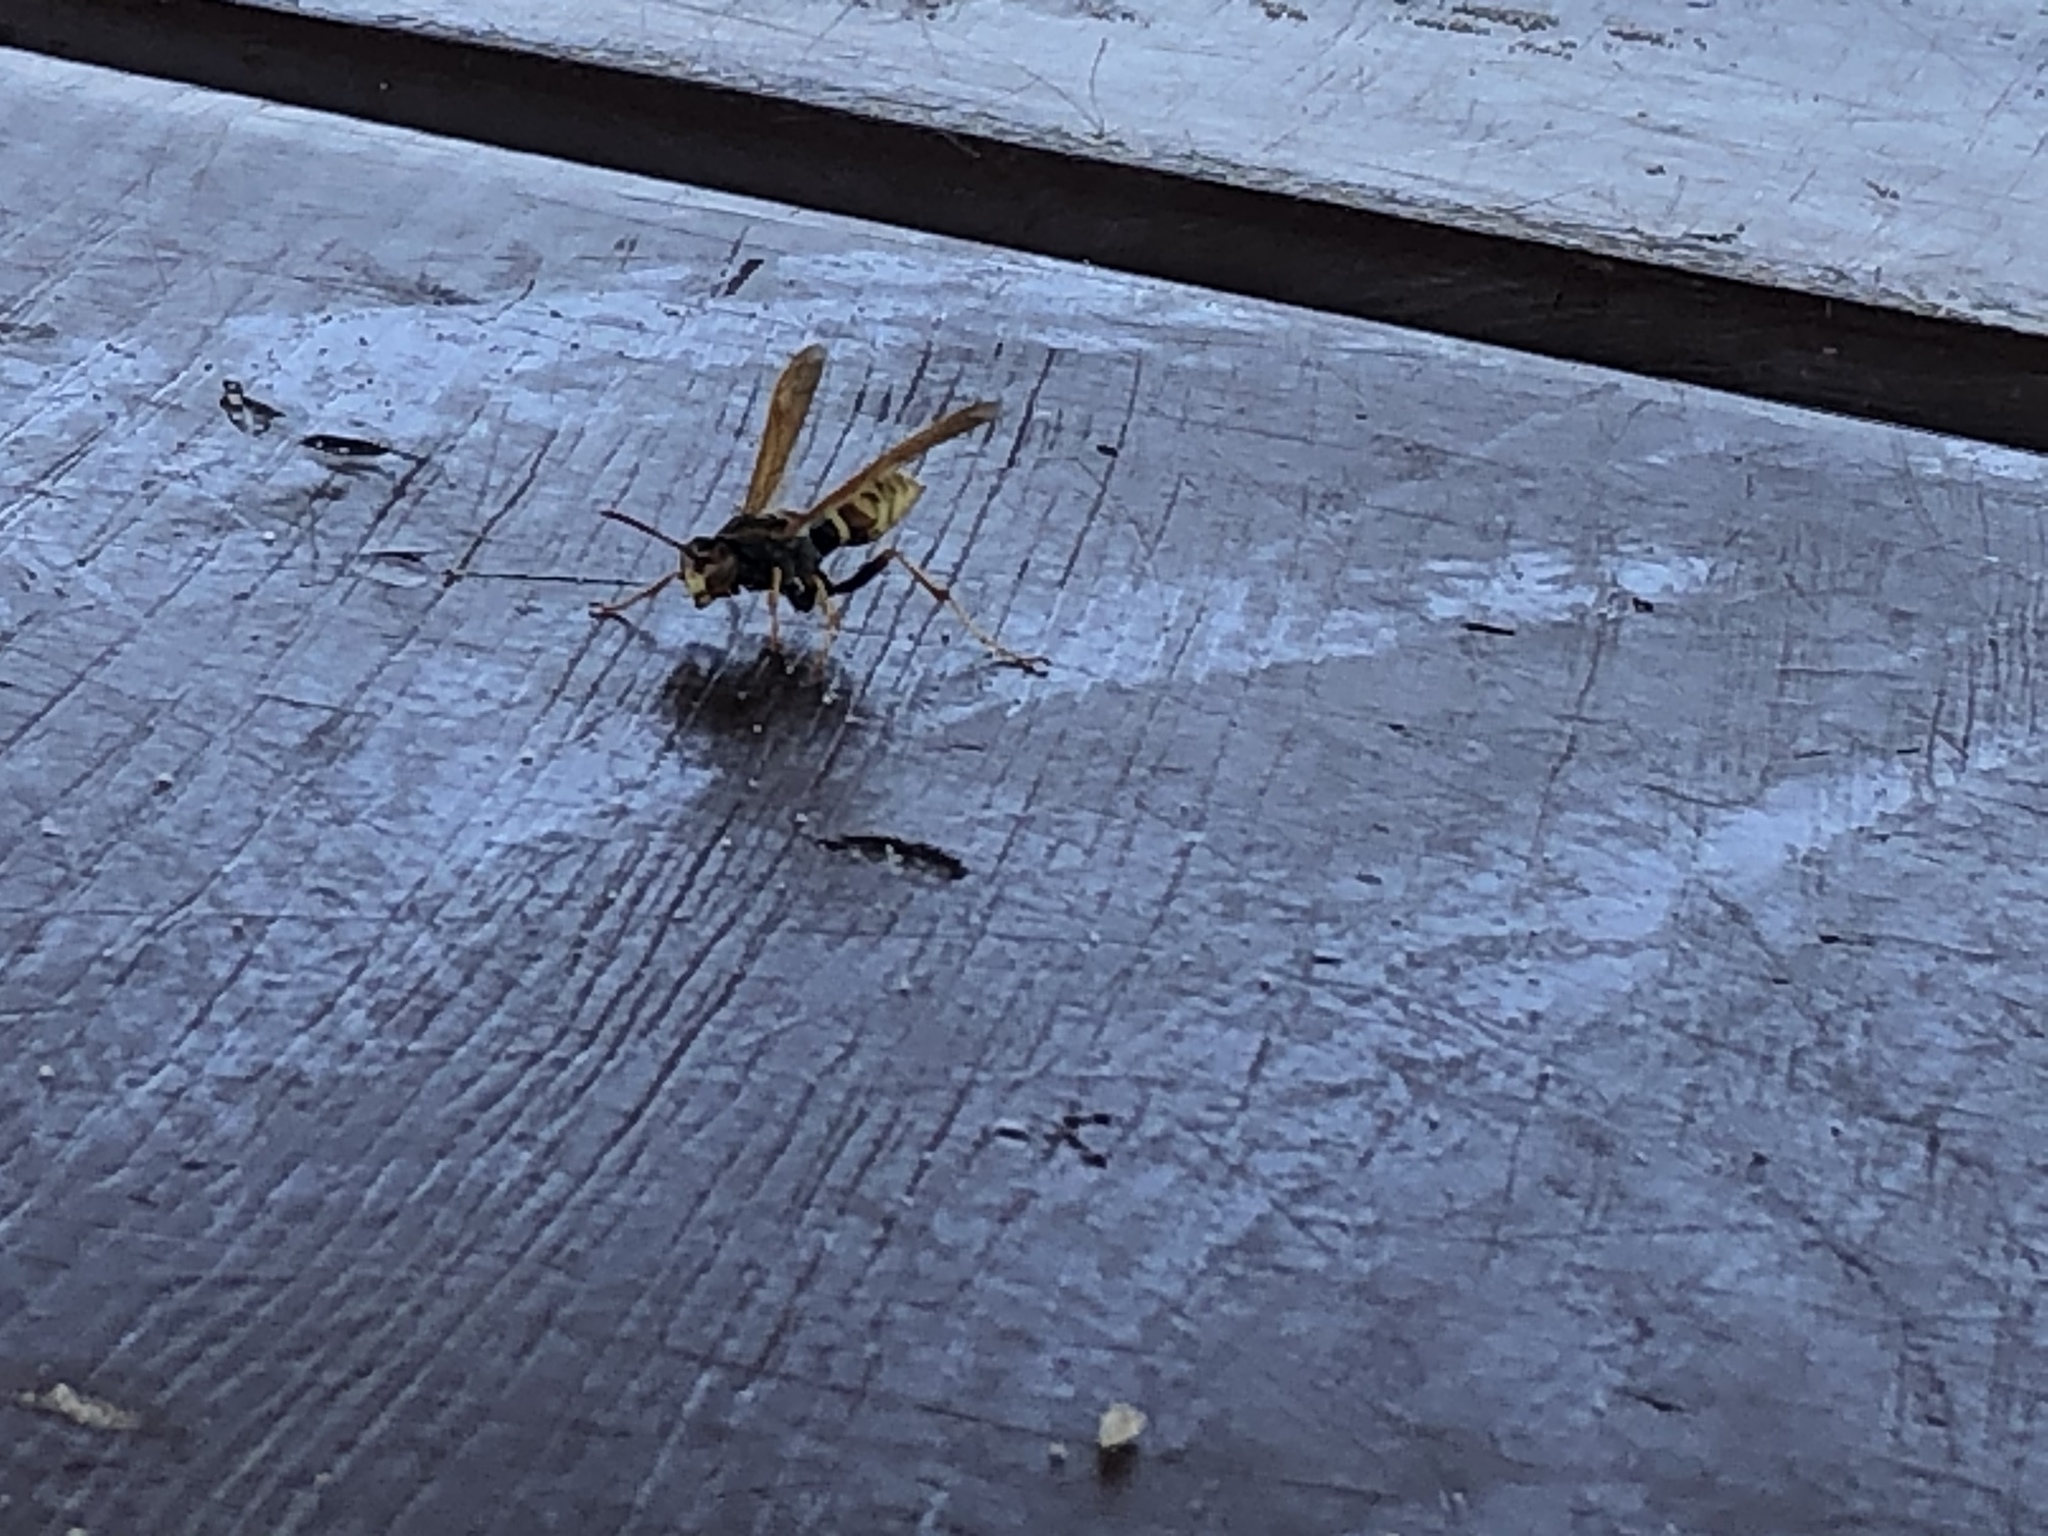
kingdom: Animalia
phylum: Arthropoda
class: Insecta
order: Hymenoptera
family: Eumenidae
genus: Polistes
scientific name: Polistes aurifer
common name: Paper wasp
